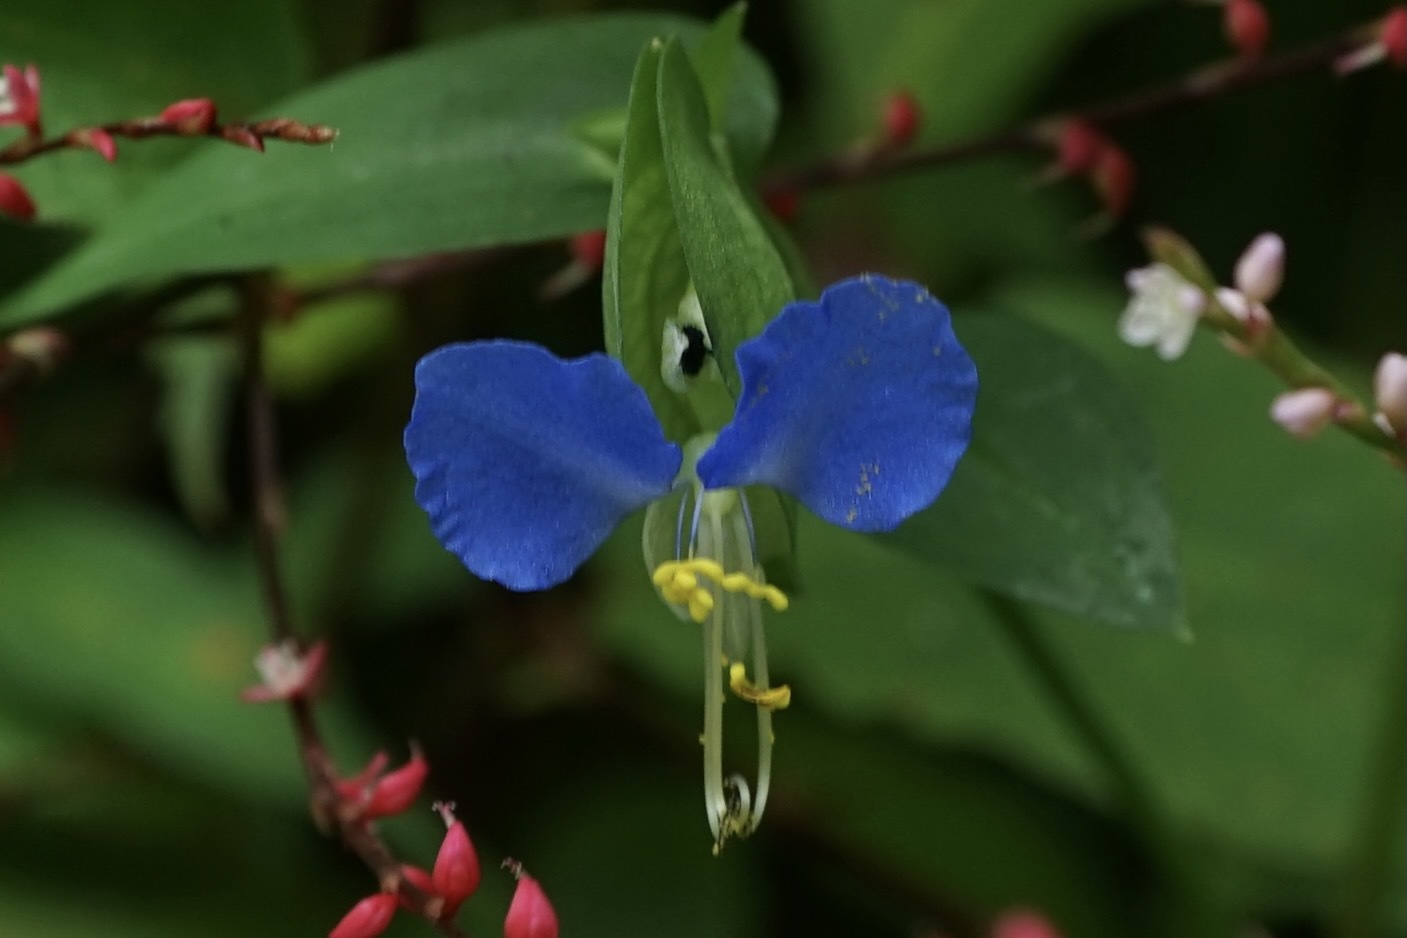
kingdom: Plantae
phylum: Tracheophyta
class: Liliopsida
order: Commelinales
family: Commelinaceae
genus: Commelina
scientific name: Commelina communis
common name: Asiatic dayflower
